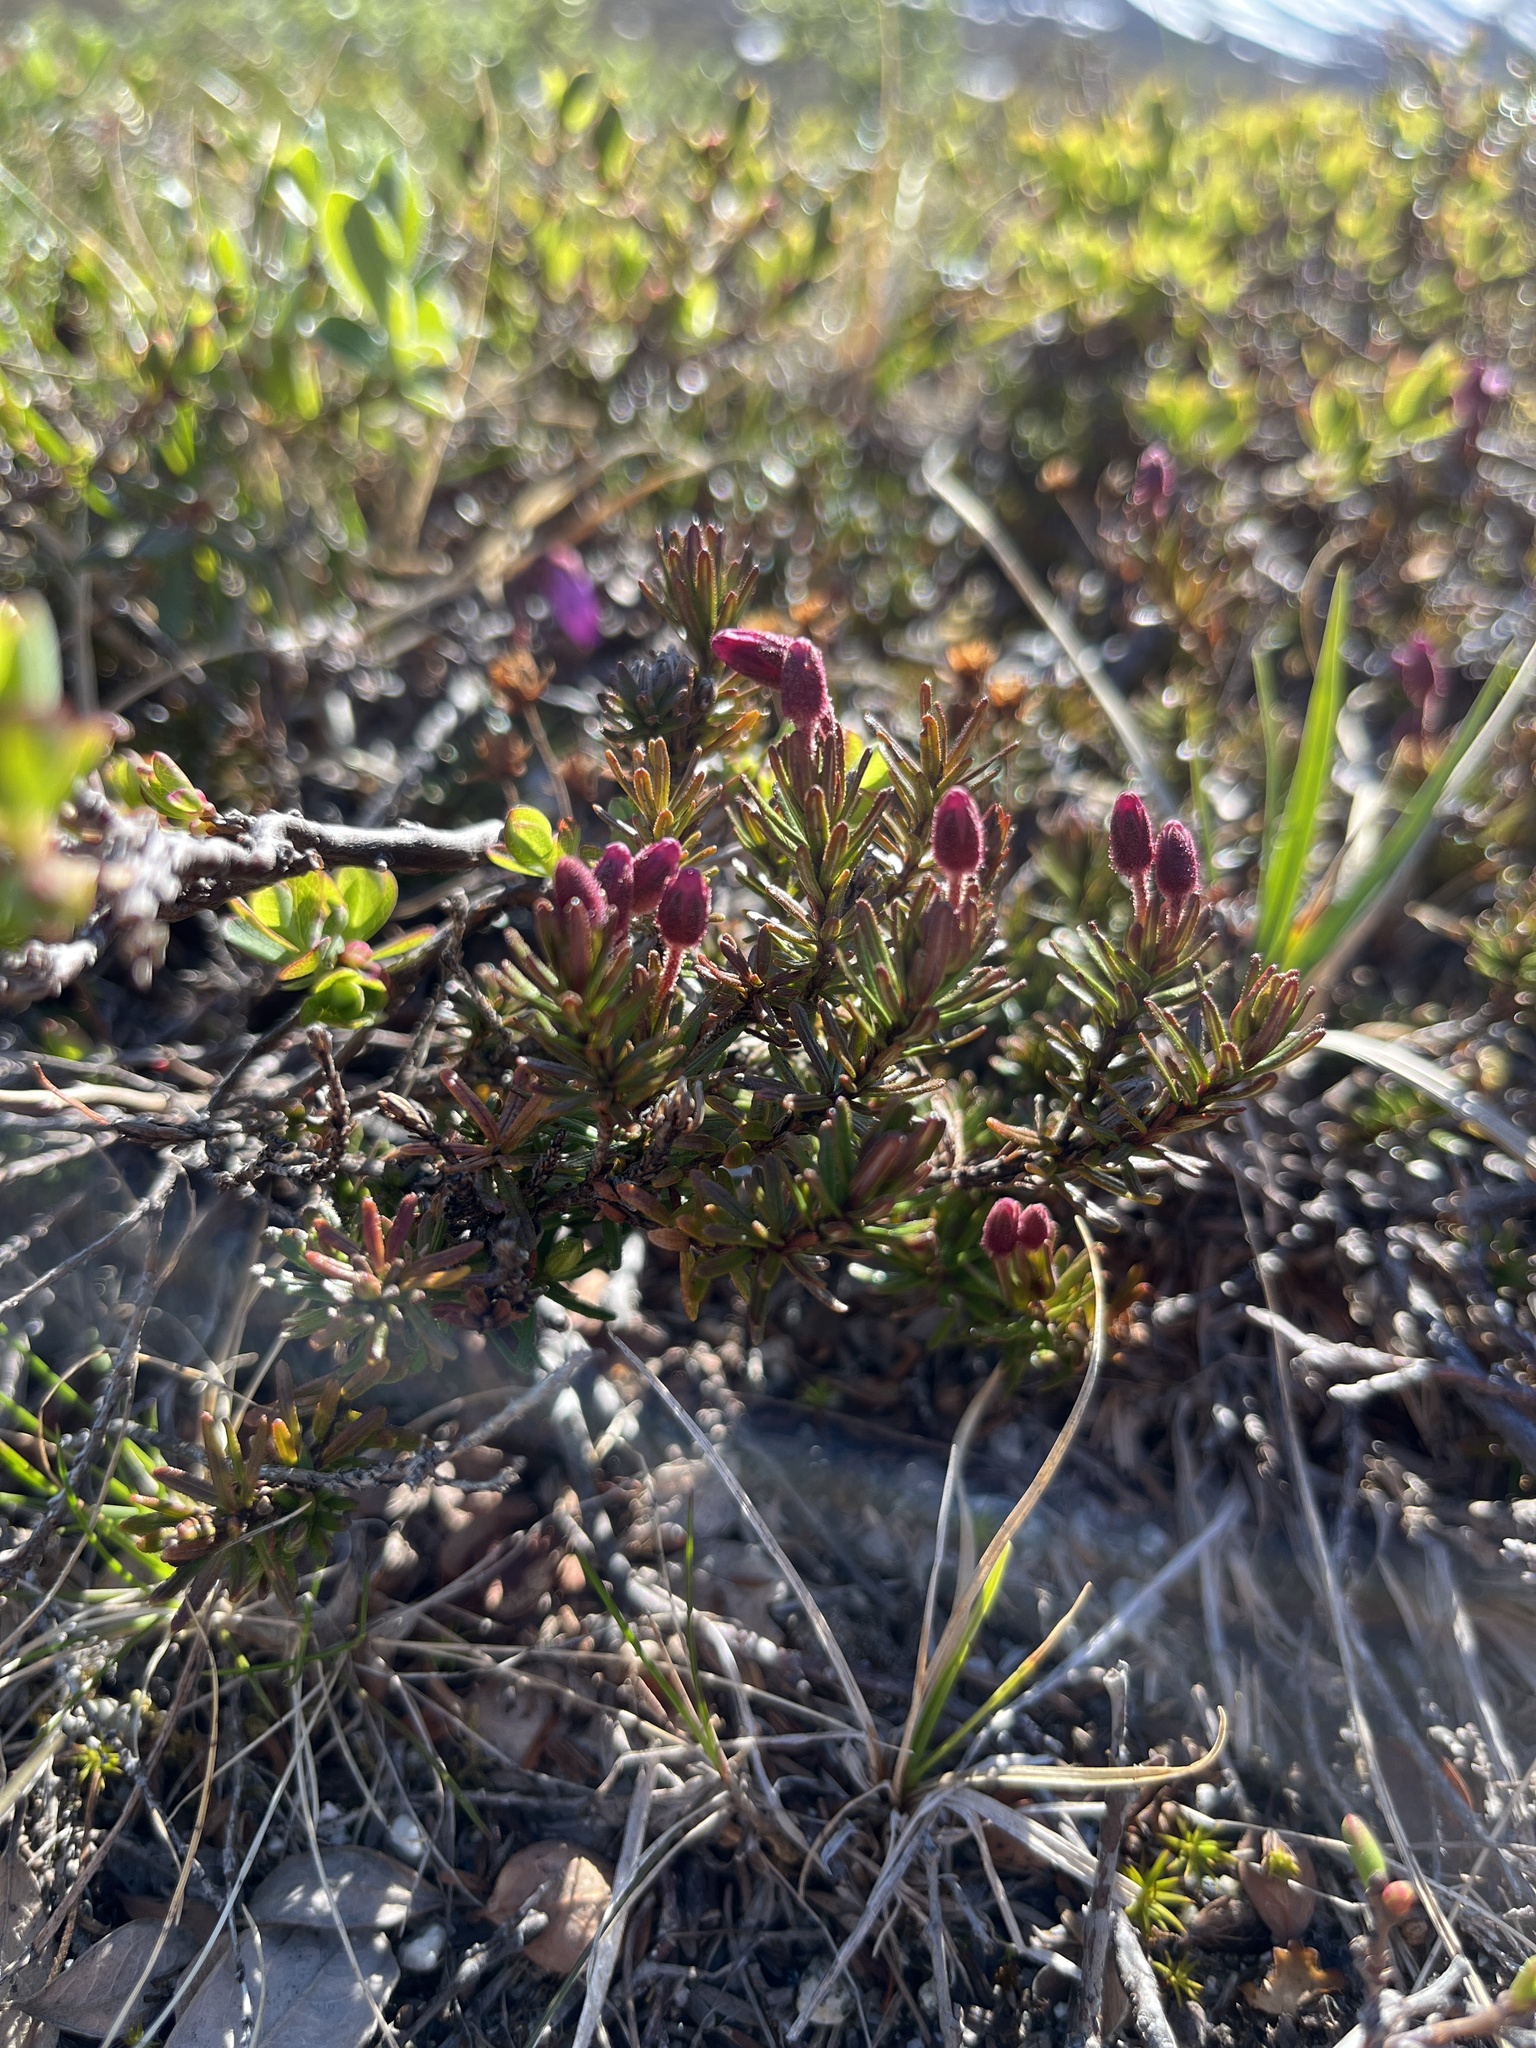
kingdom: Plantae
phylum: Tracheophyta
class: Magnoliopsida
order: Ericales
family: Ericaceae
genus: Phyllodoce
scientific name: Phyllodoce caerulea
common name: Blue heath
